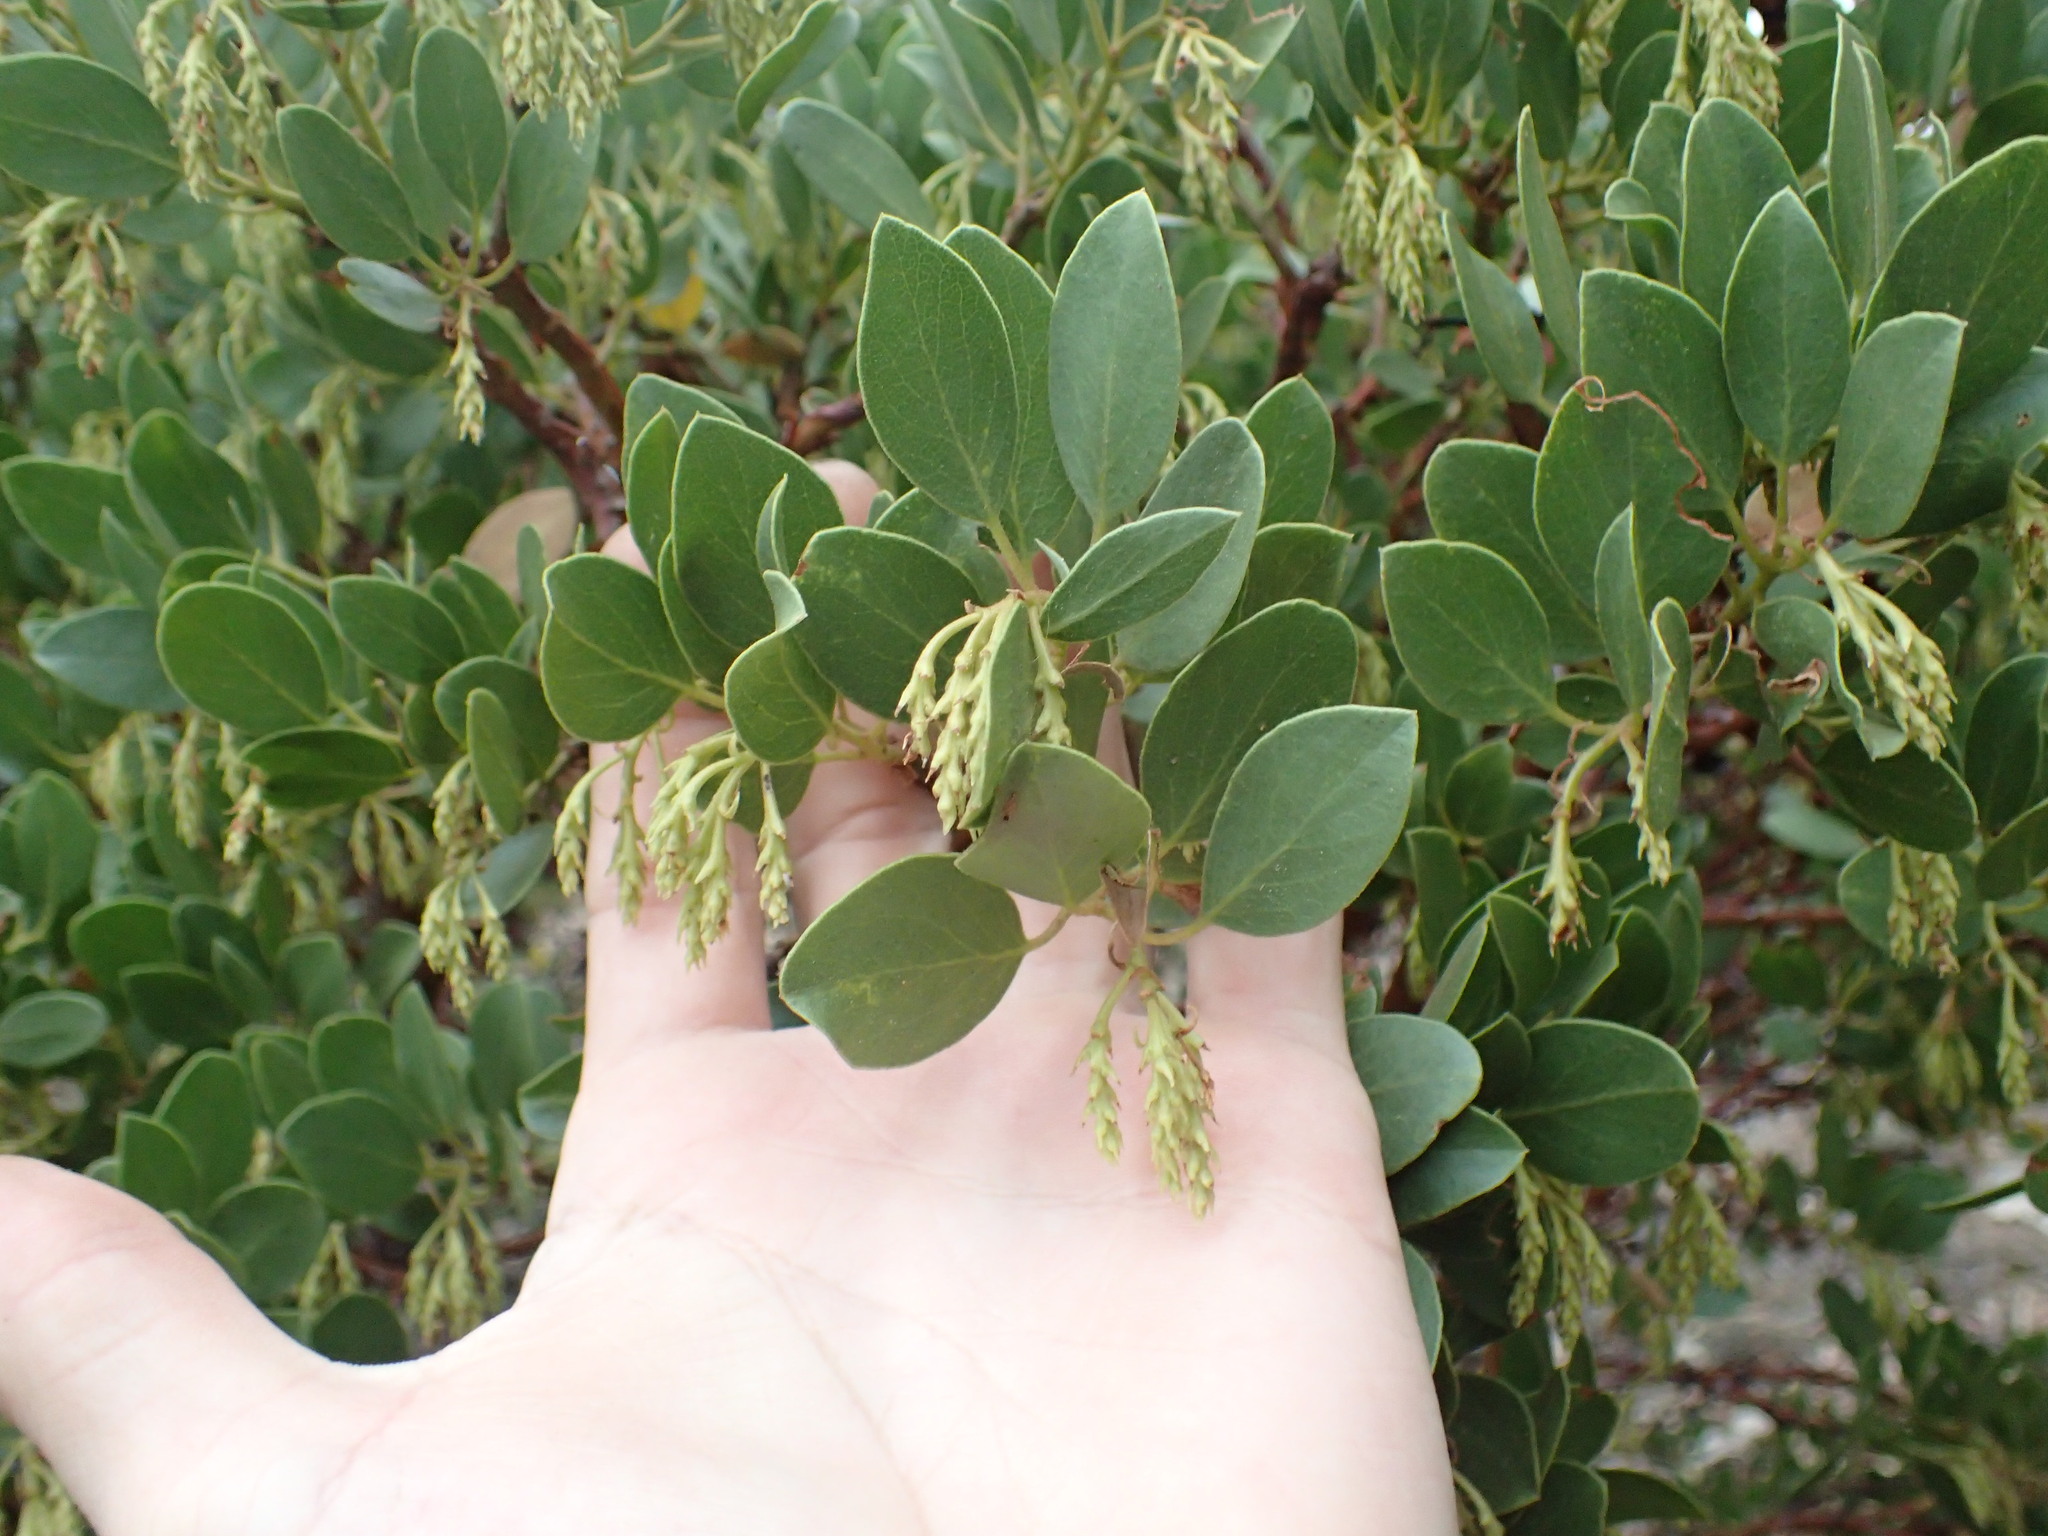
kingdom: Plantae
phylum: Tracheophyta
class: Magnoliopsida
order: Ericales
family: Ericaceae
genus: Arctostaphylos
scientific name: Arctostaphylos patula
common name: Green-leaf manzanita
